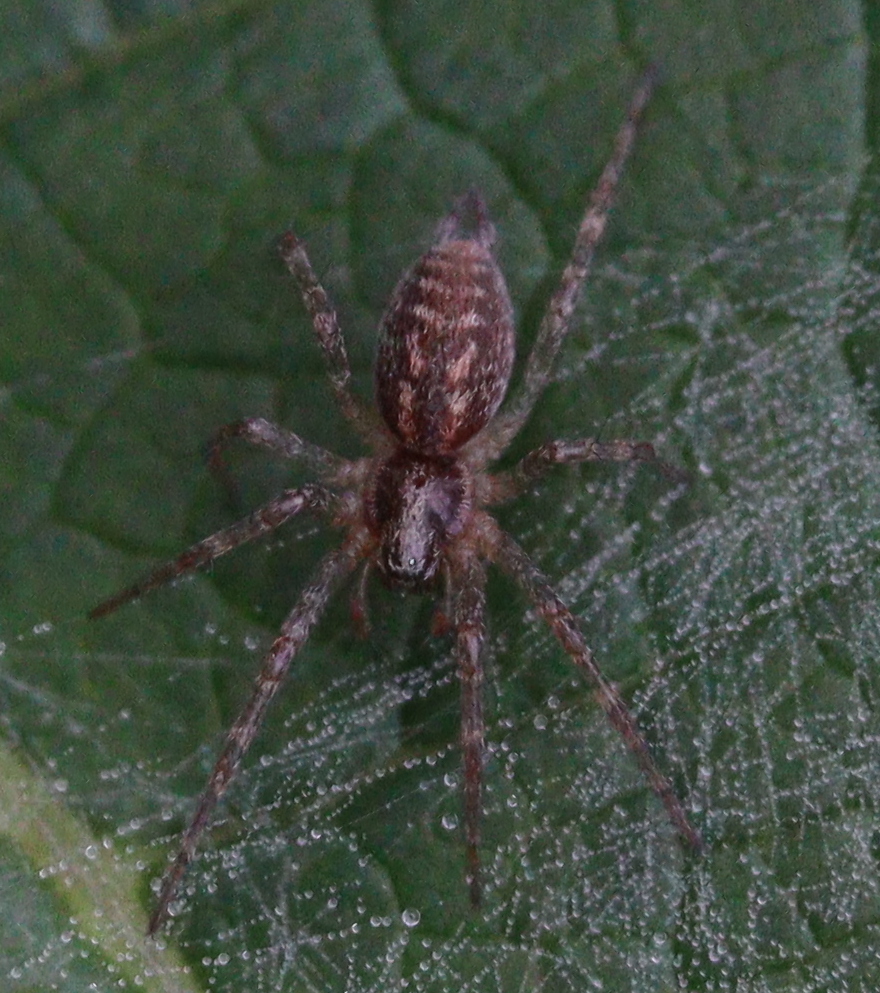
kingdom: Animalia
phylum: Arthropoda
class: Arachnida
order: Araneae
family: Agelenidae
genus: Allagelena
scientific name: Allagelena gracilens
